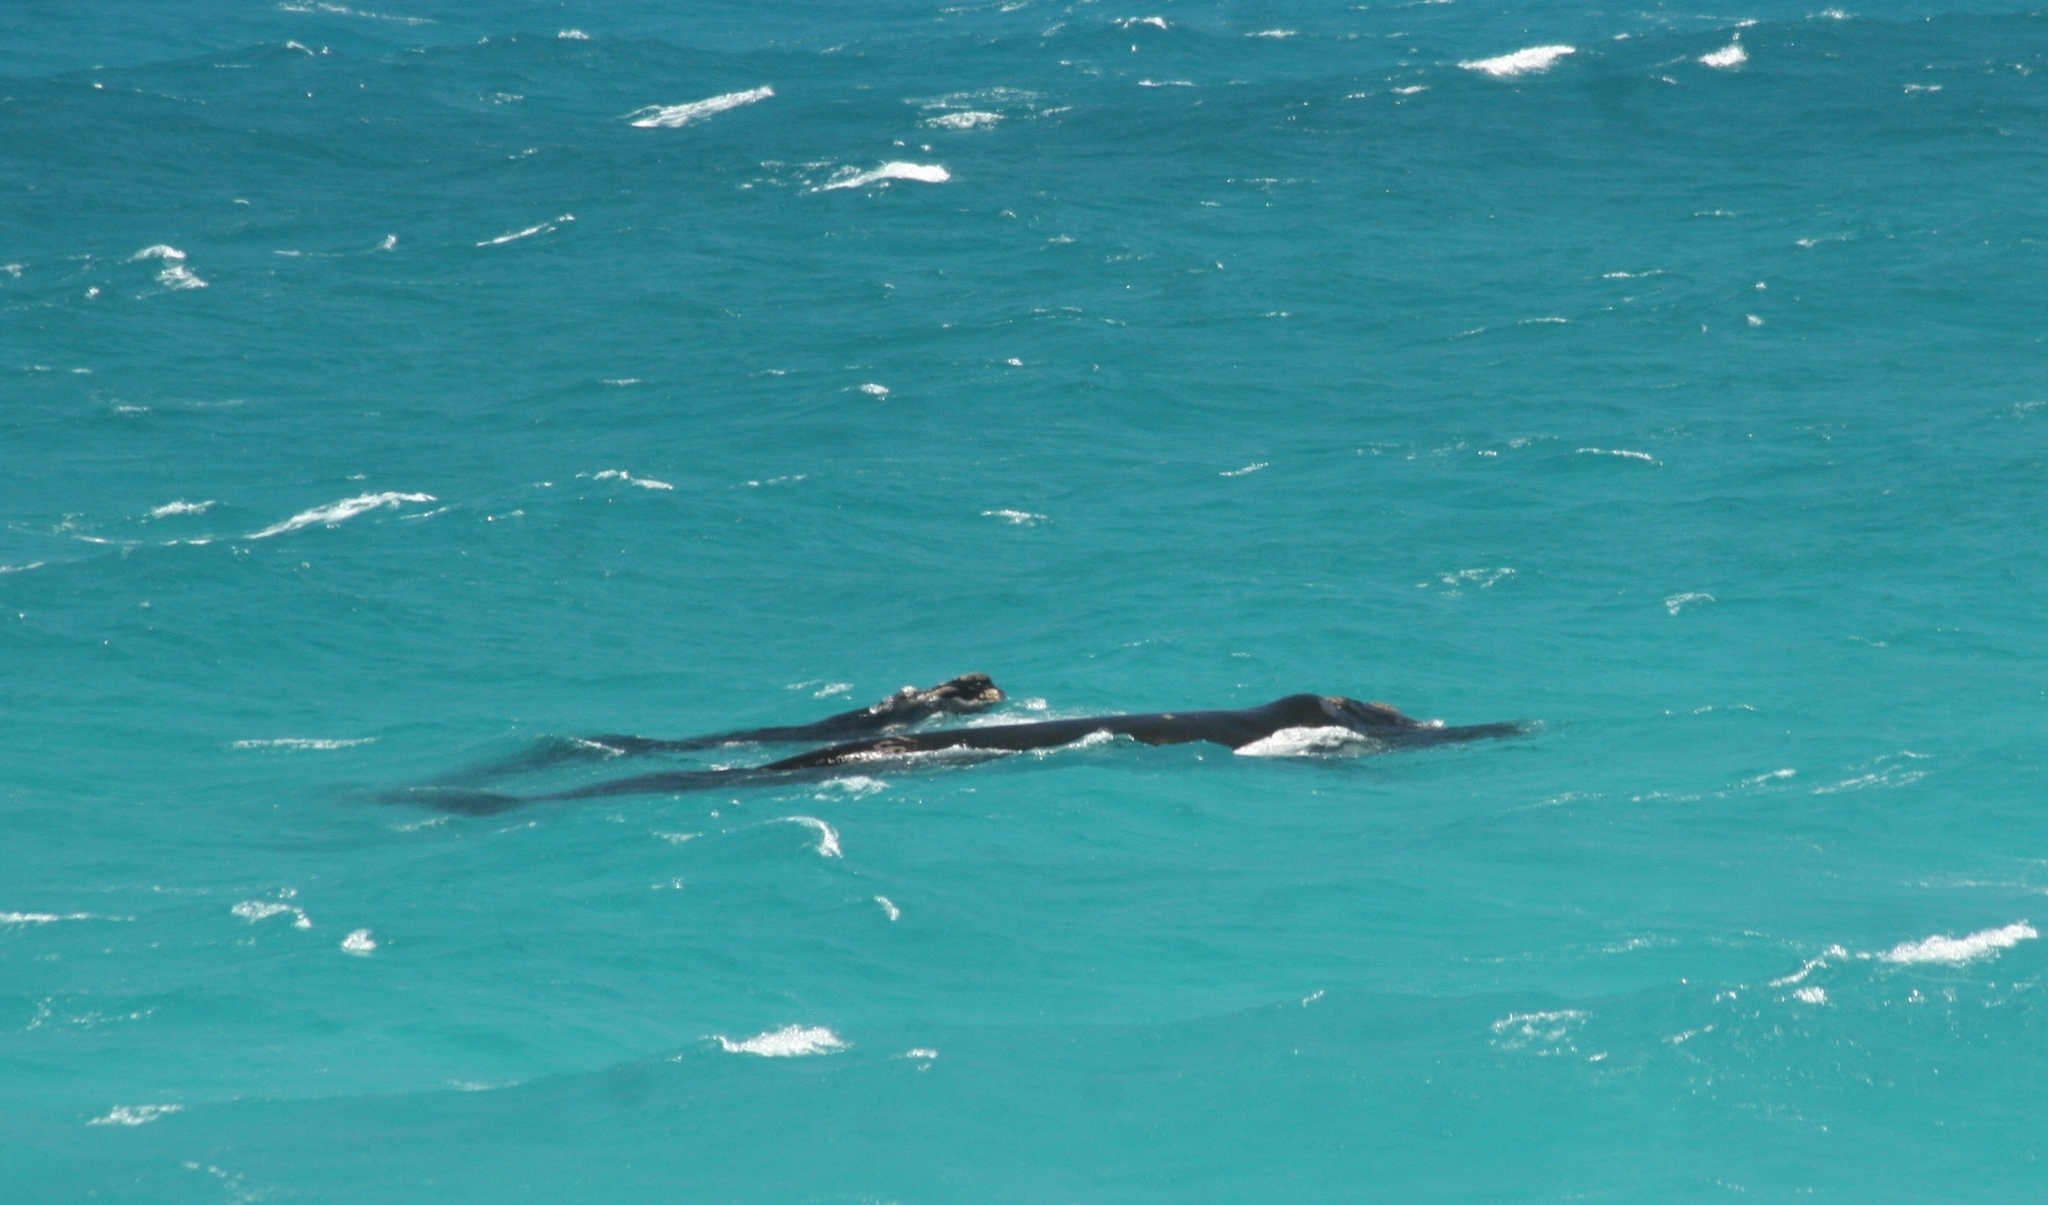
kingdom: Animalia
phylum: Chordata
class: Mammalia
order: Cetacea
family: Balaenidae
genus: Eubalaena
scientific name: Eubalaena australis
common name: Southern right whale
